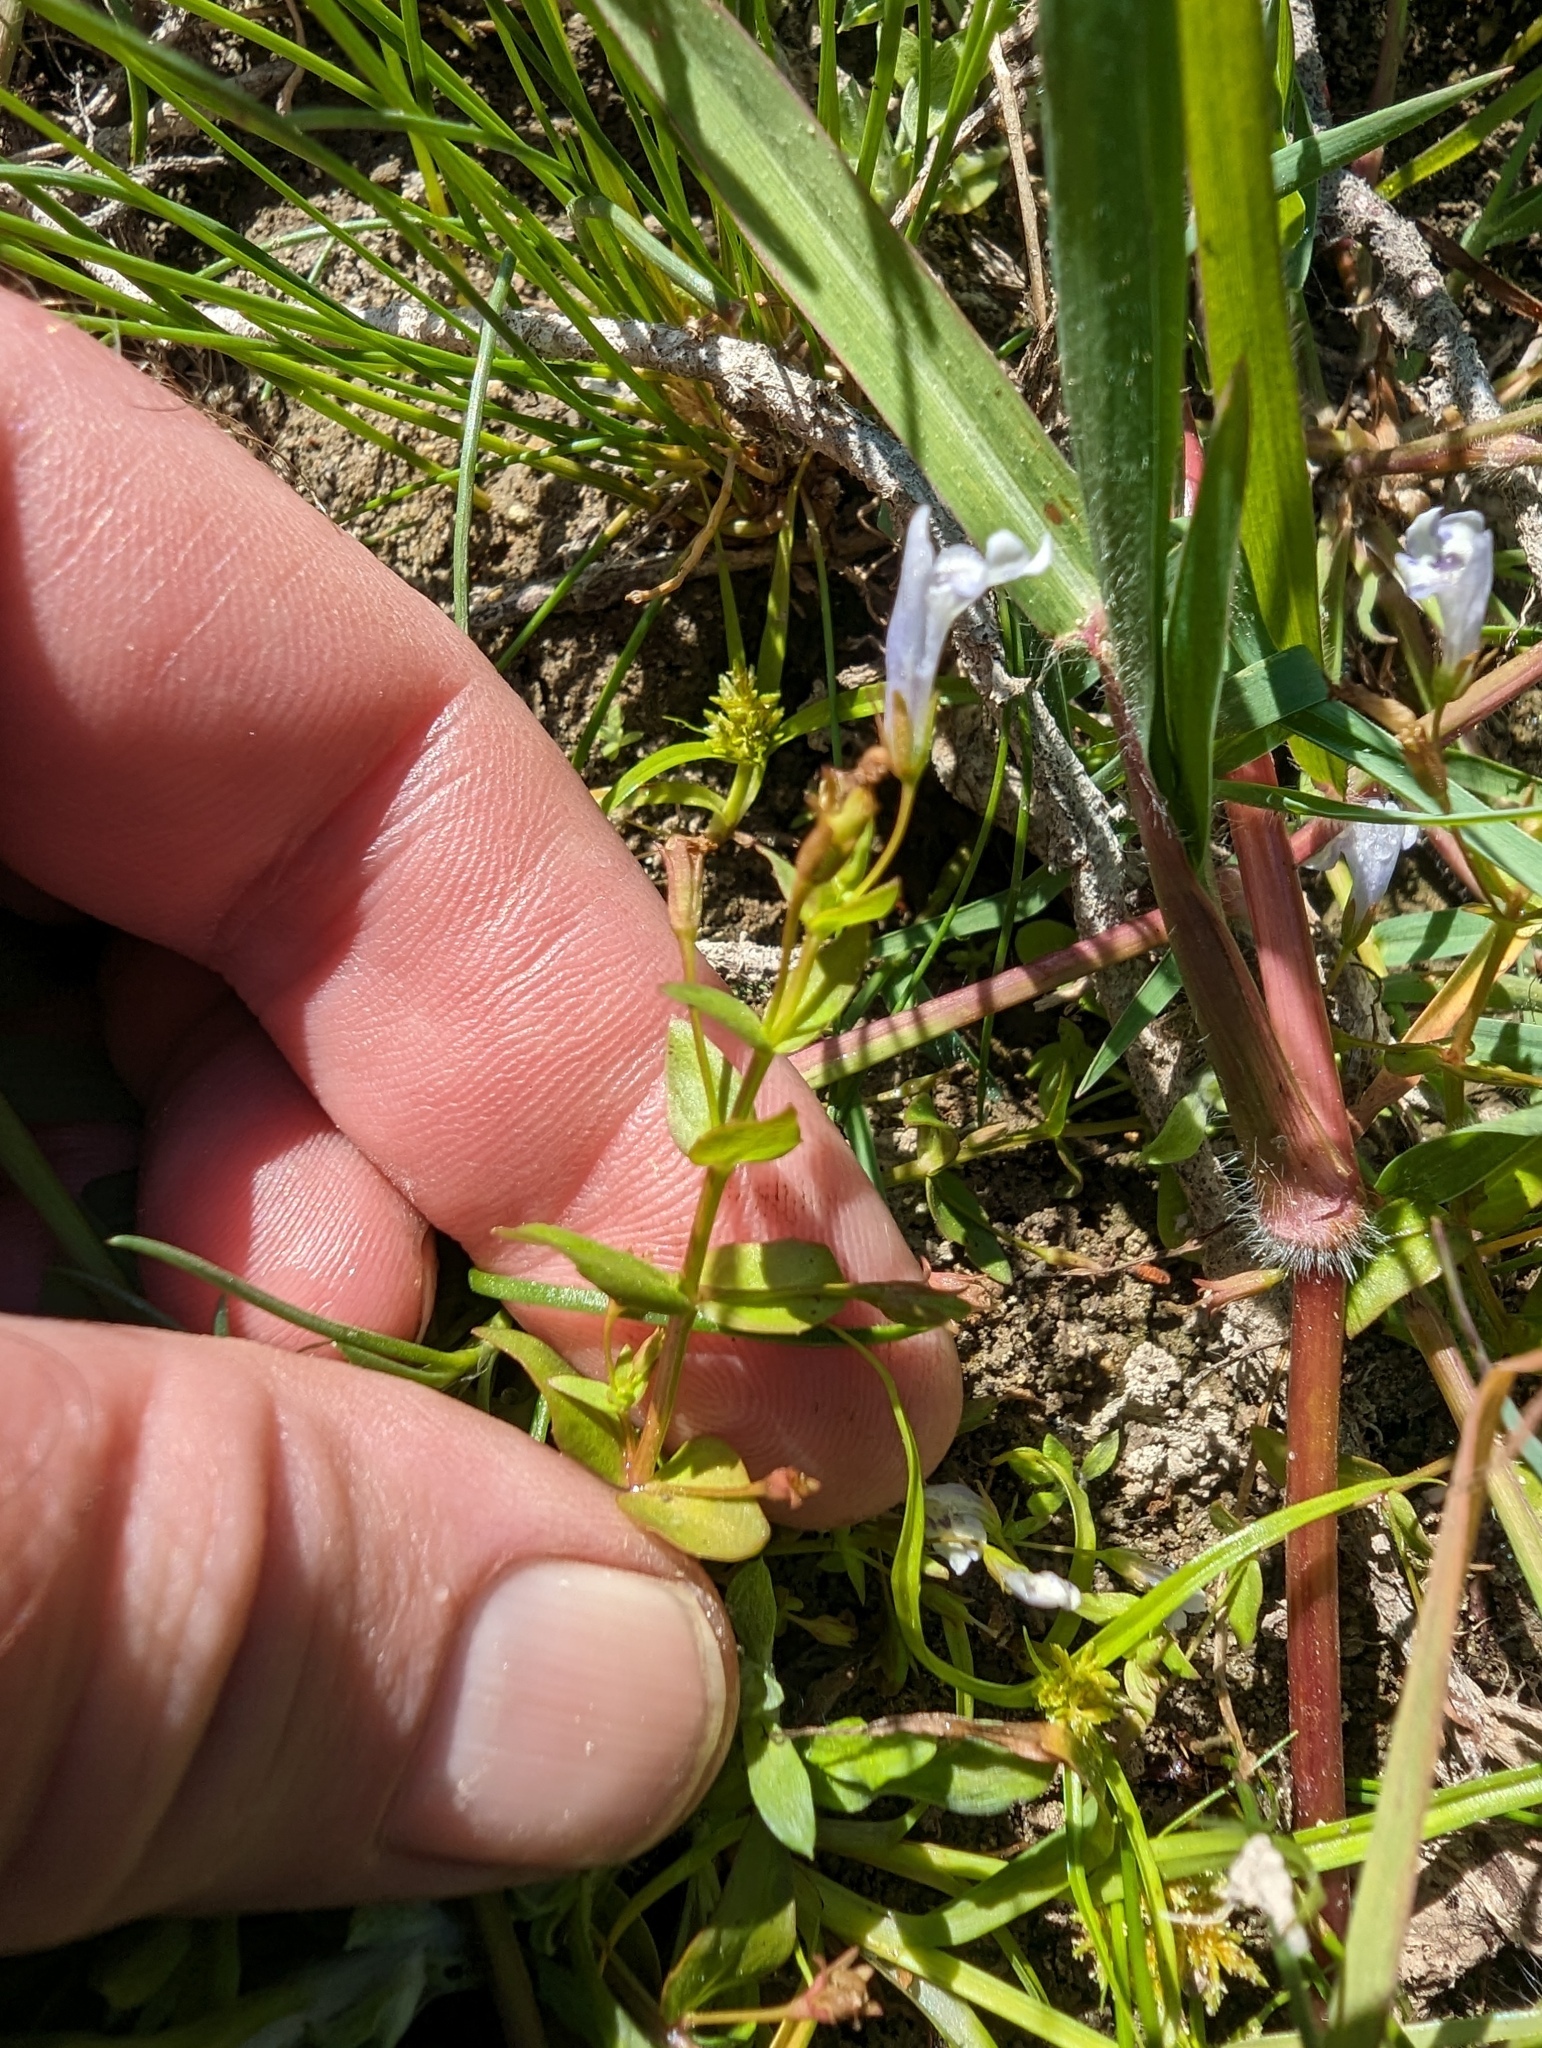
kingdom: Plantae
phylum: Tracheophyta
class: Magnoliopsida
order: Lamiales
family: Linderniaceae
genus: Lindernia
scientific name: Lindernia dubia
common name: Annual false pimpernel
